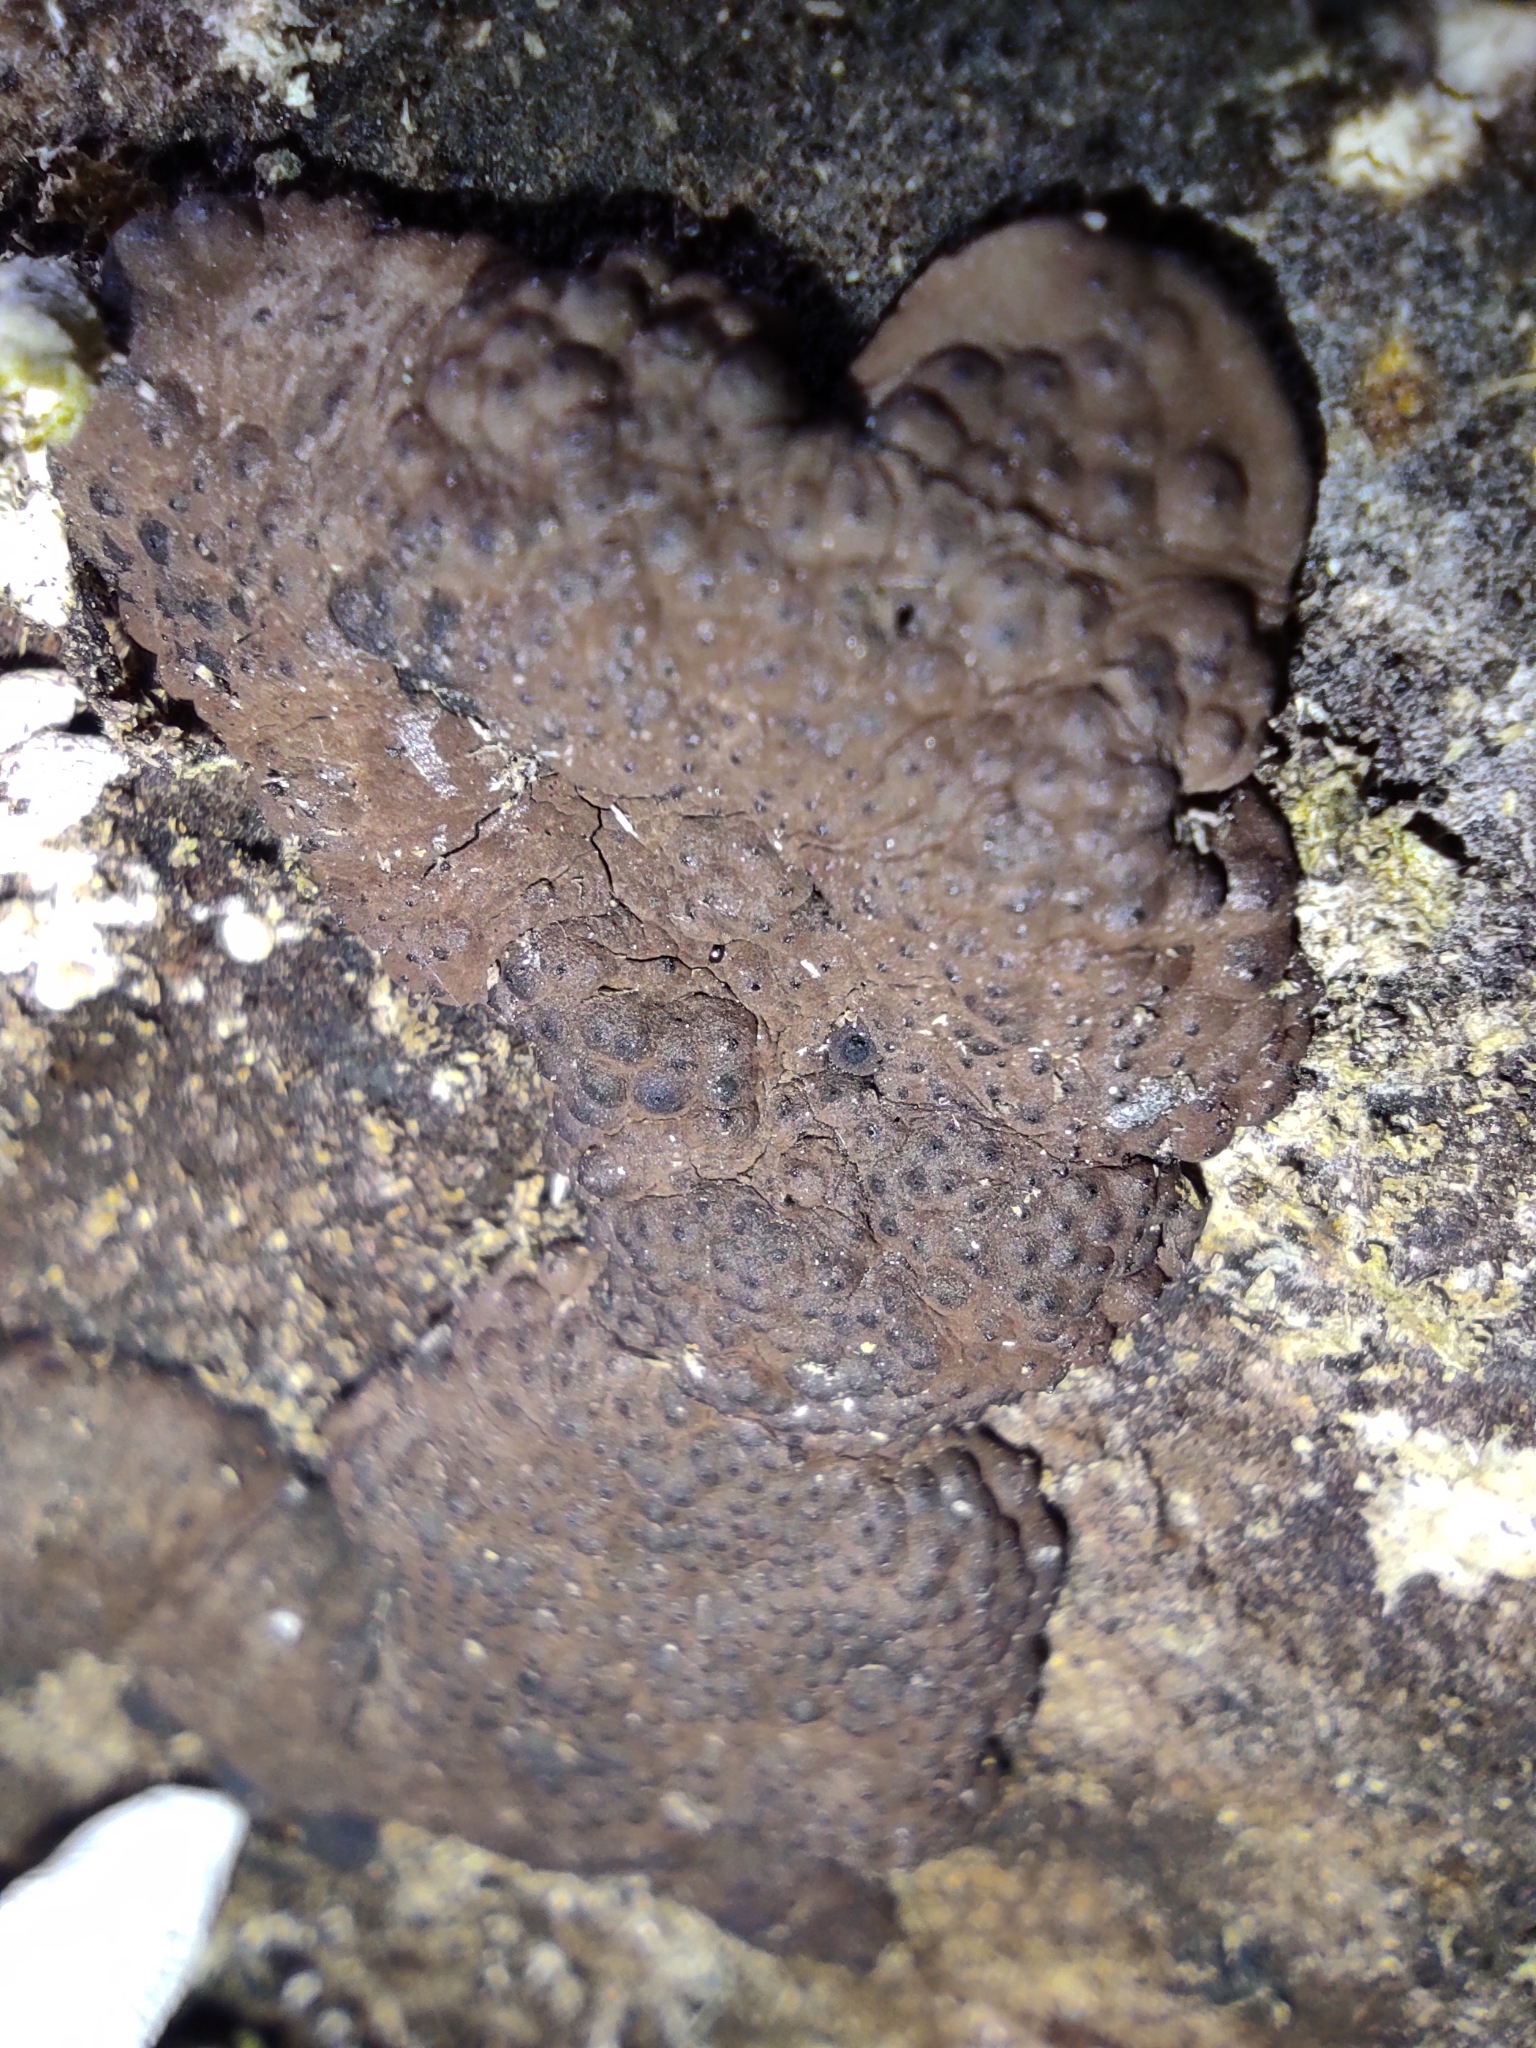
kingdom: Fungi
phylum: Ascomycota
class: Sordariomycetes
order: Xylariales
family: Hypoxylaceae
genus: Jackrogersella
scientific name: Jackrogersella multiformis
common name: Birch woodwart
